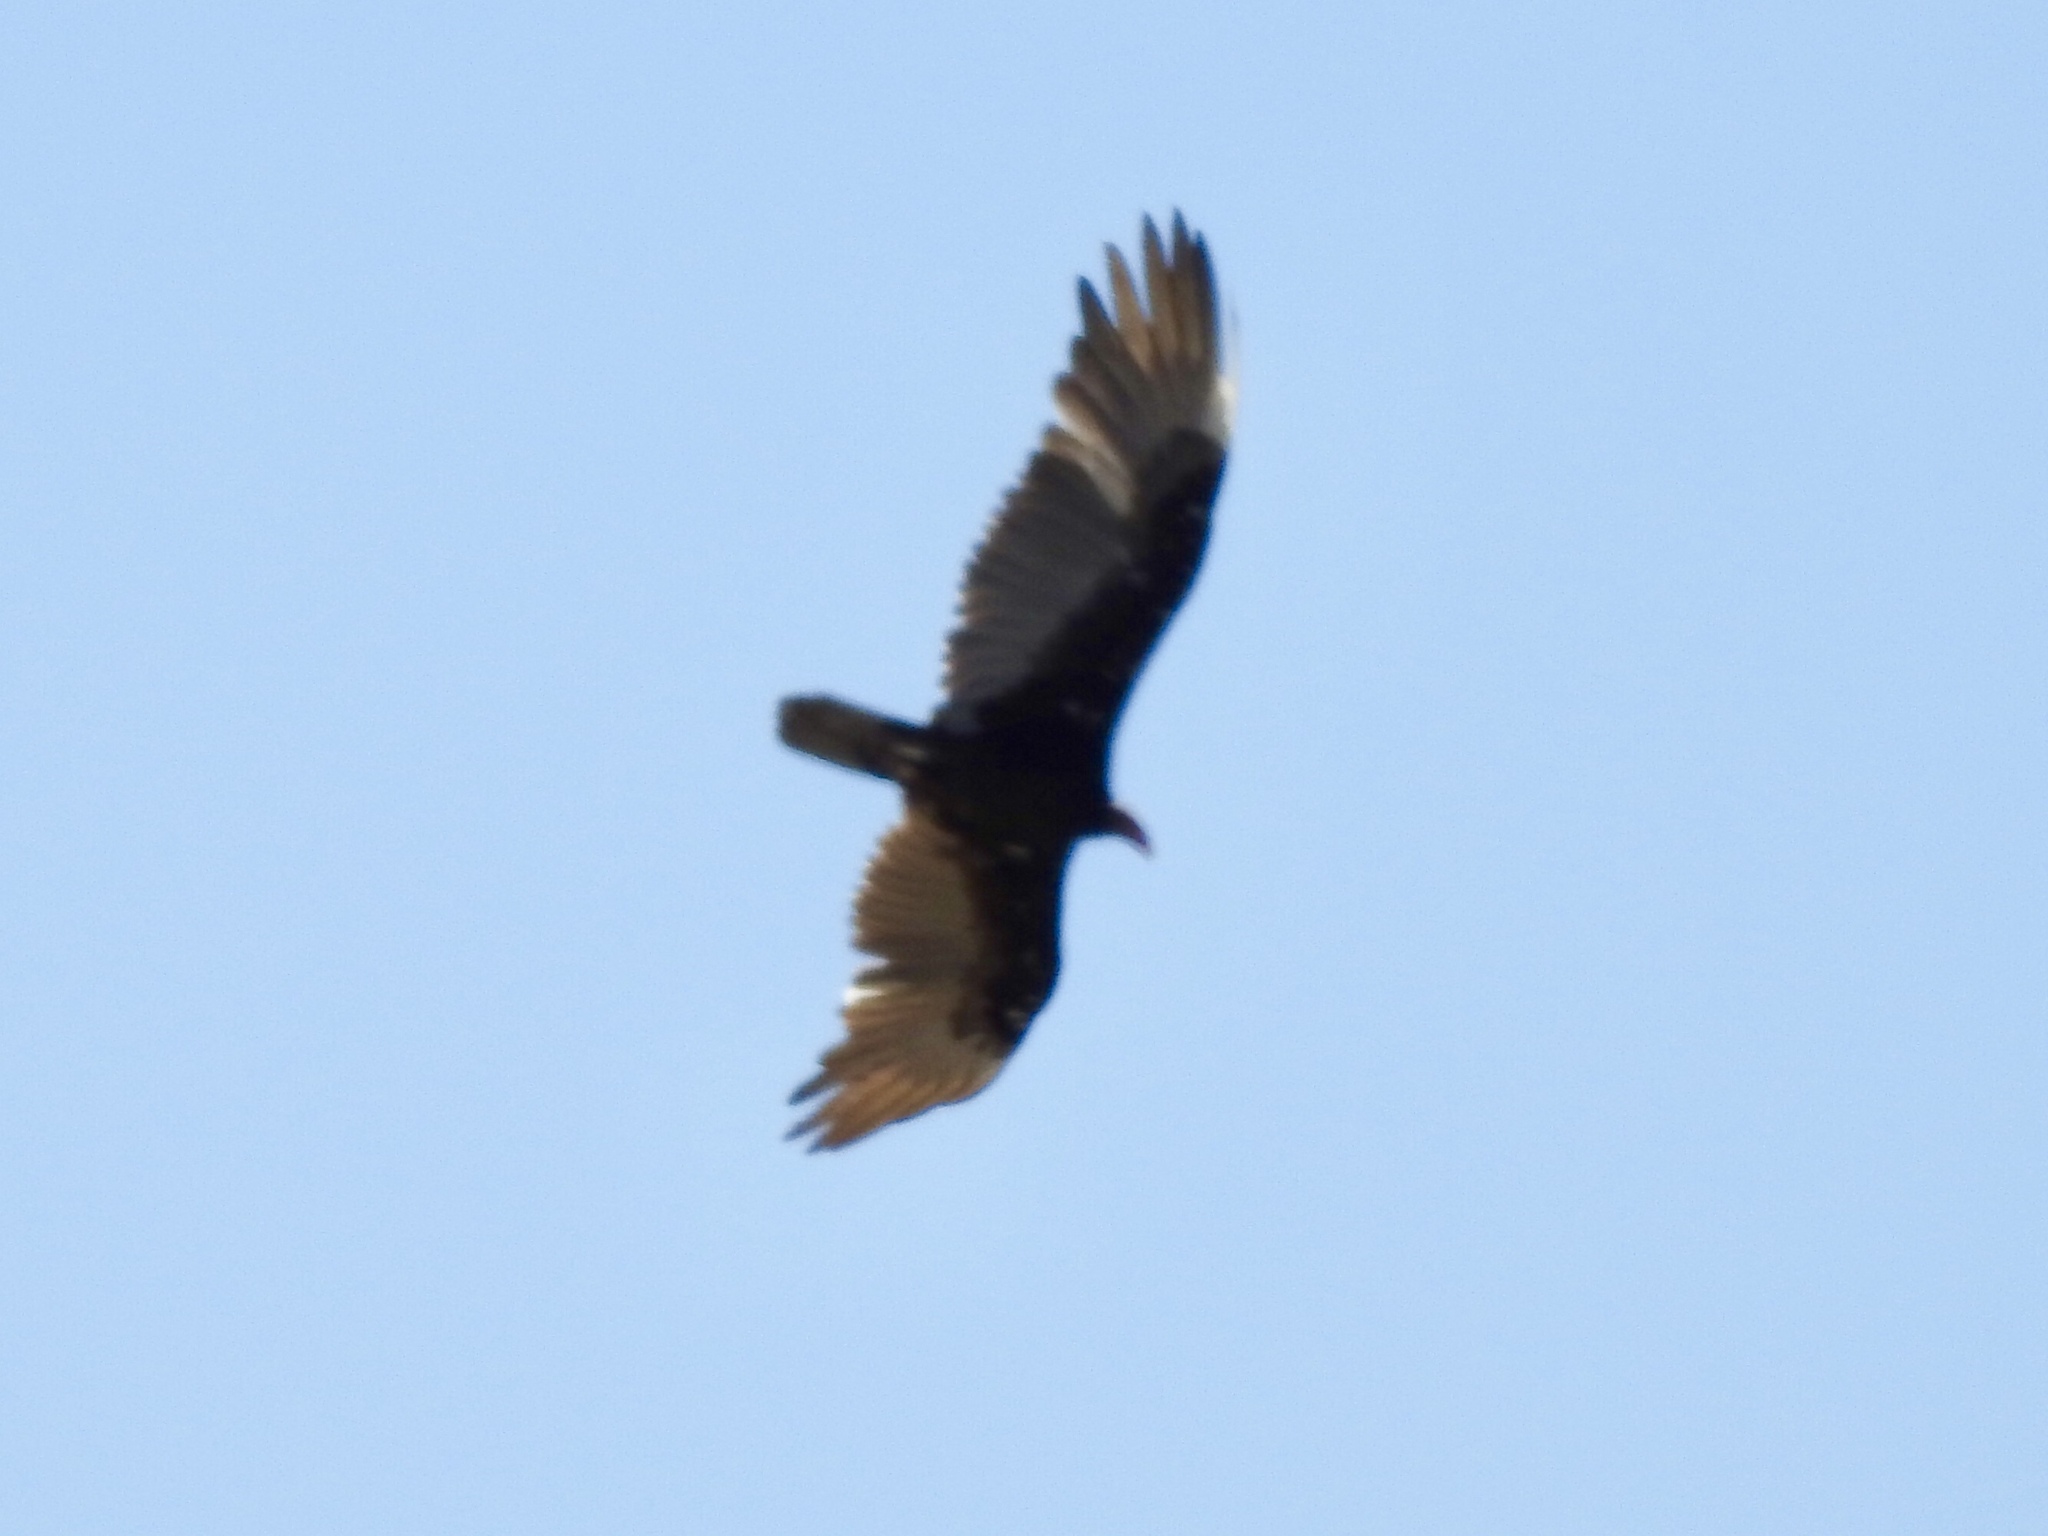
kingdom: Animalia
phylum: Chordata
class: Aves
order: Accipitriformes
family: Cathartidae
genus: Cathartes
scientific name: Cathartes aura
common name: Turkey vulture
